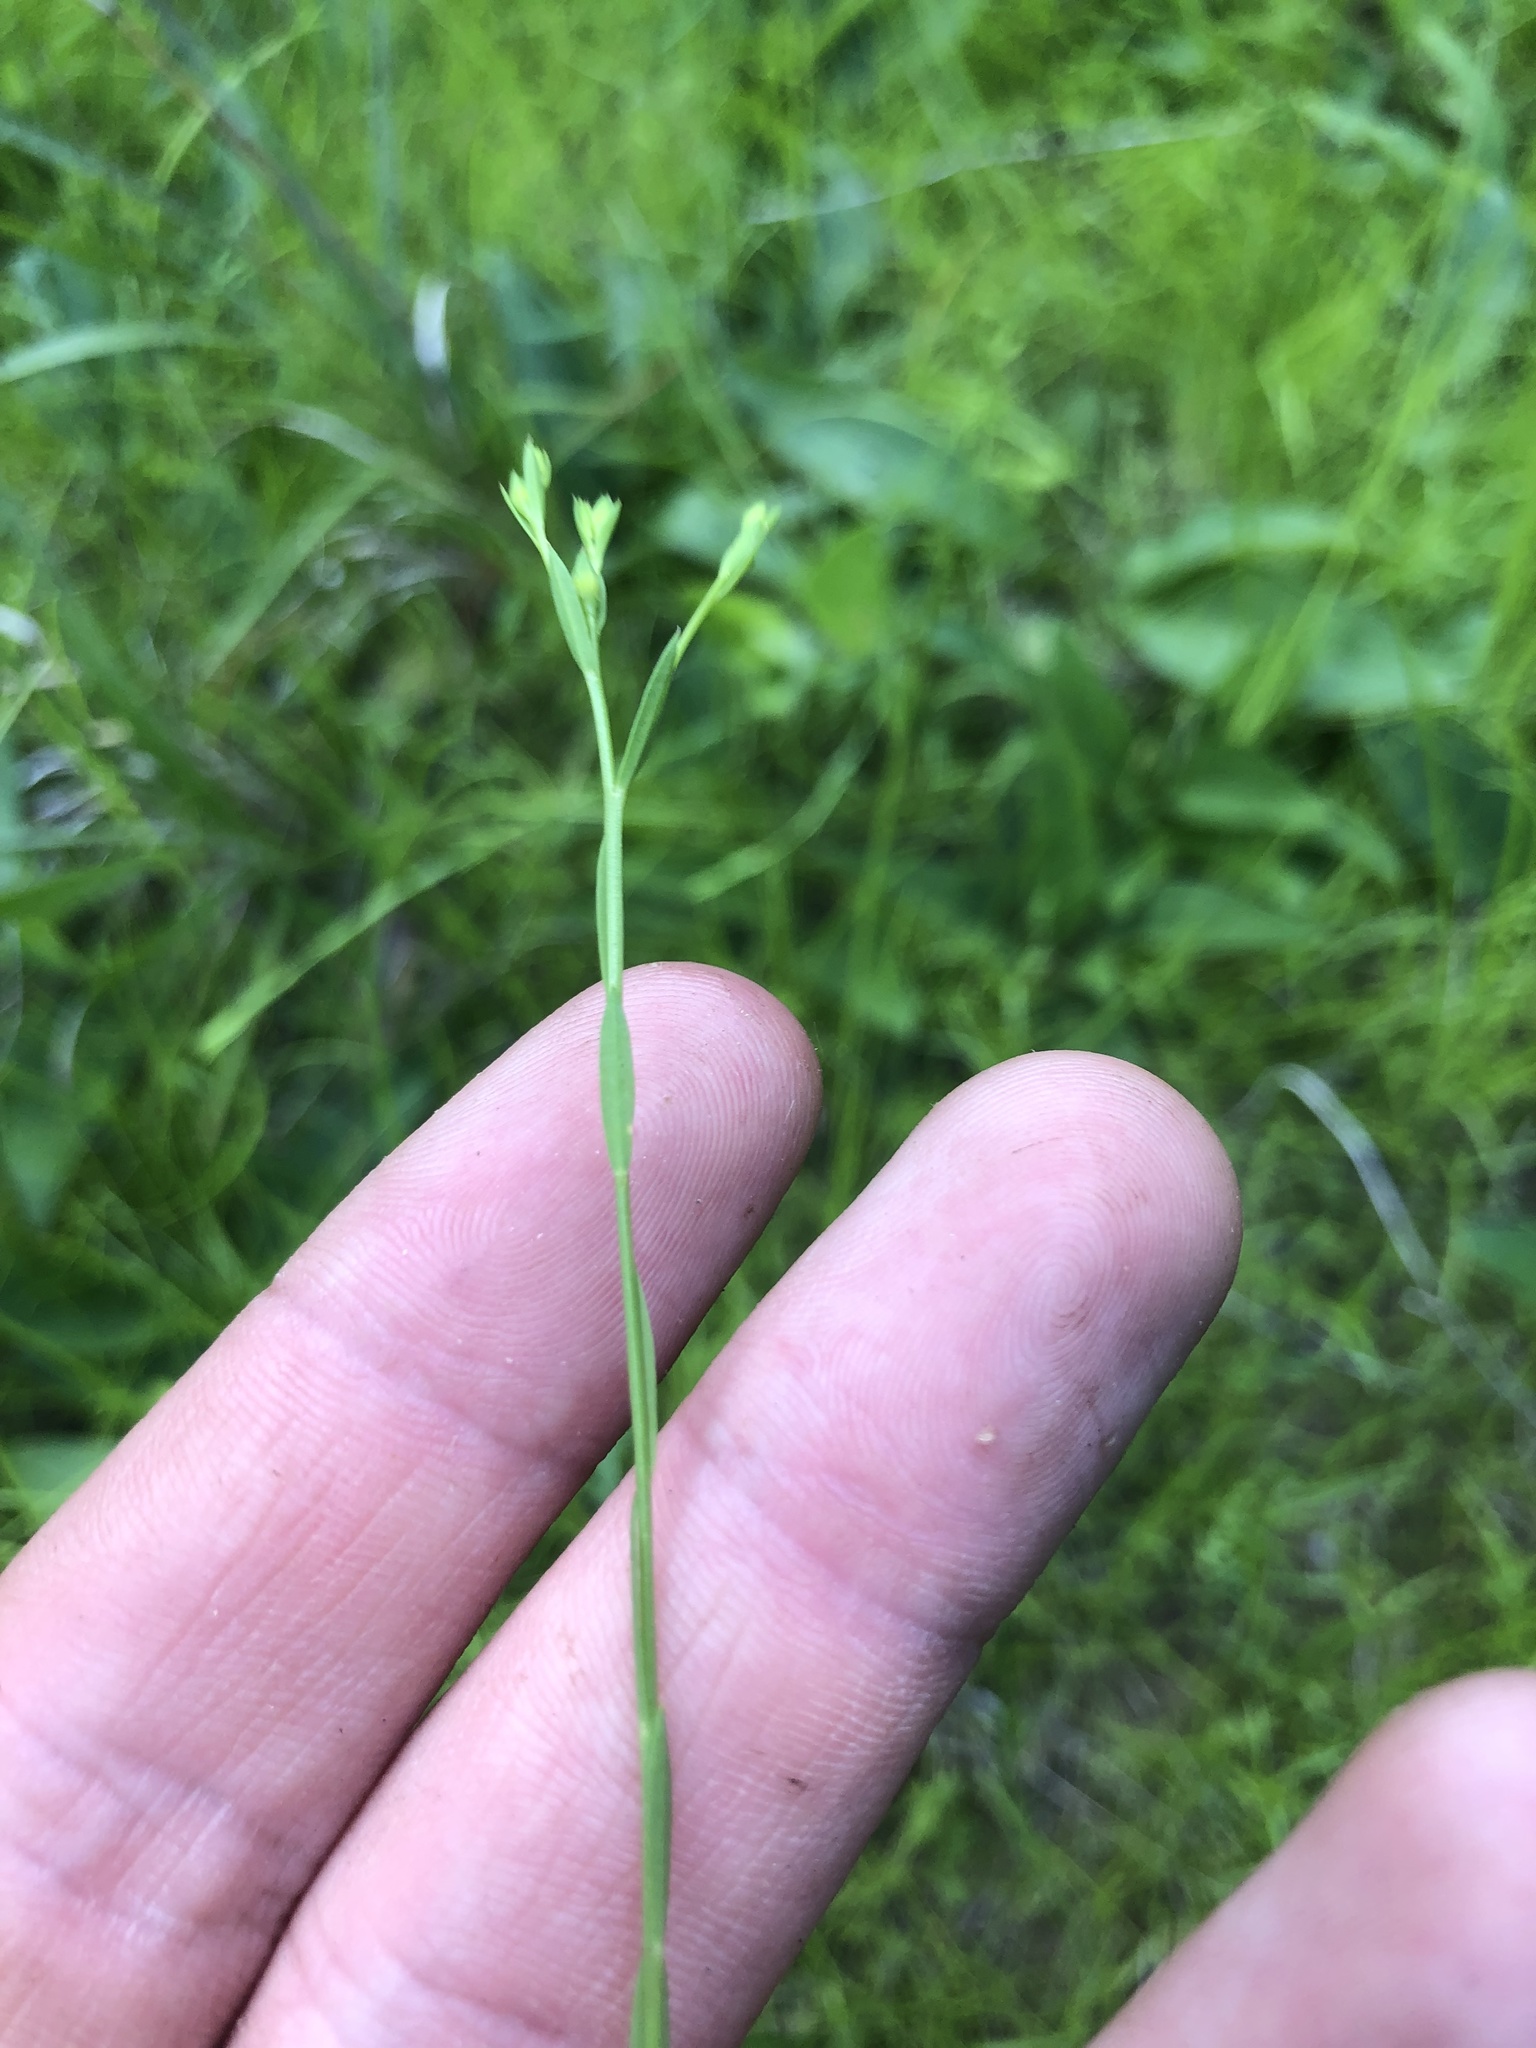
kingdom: Plantae
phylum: Tracheophyta
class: Magnoliopsida
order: Malpighiales
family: Linaceae
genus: Linum
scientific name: Linum sulcatum
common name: Grooved flax
